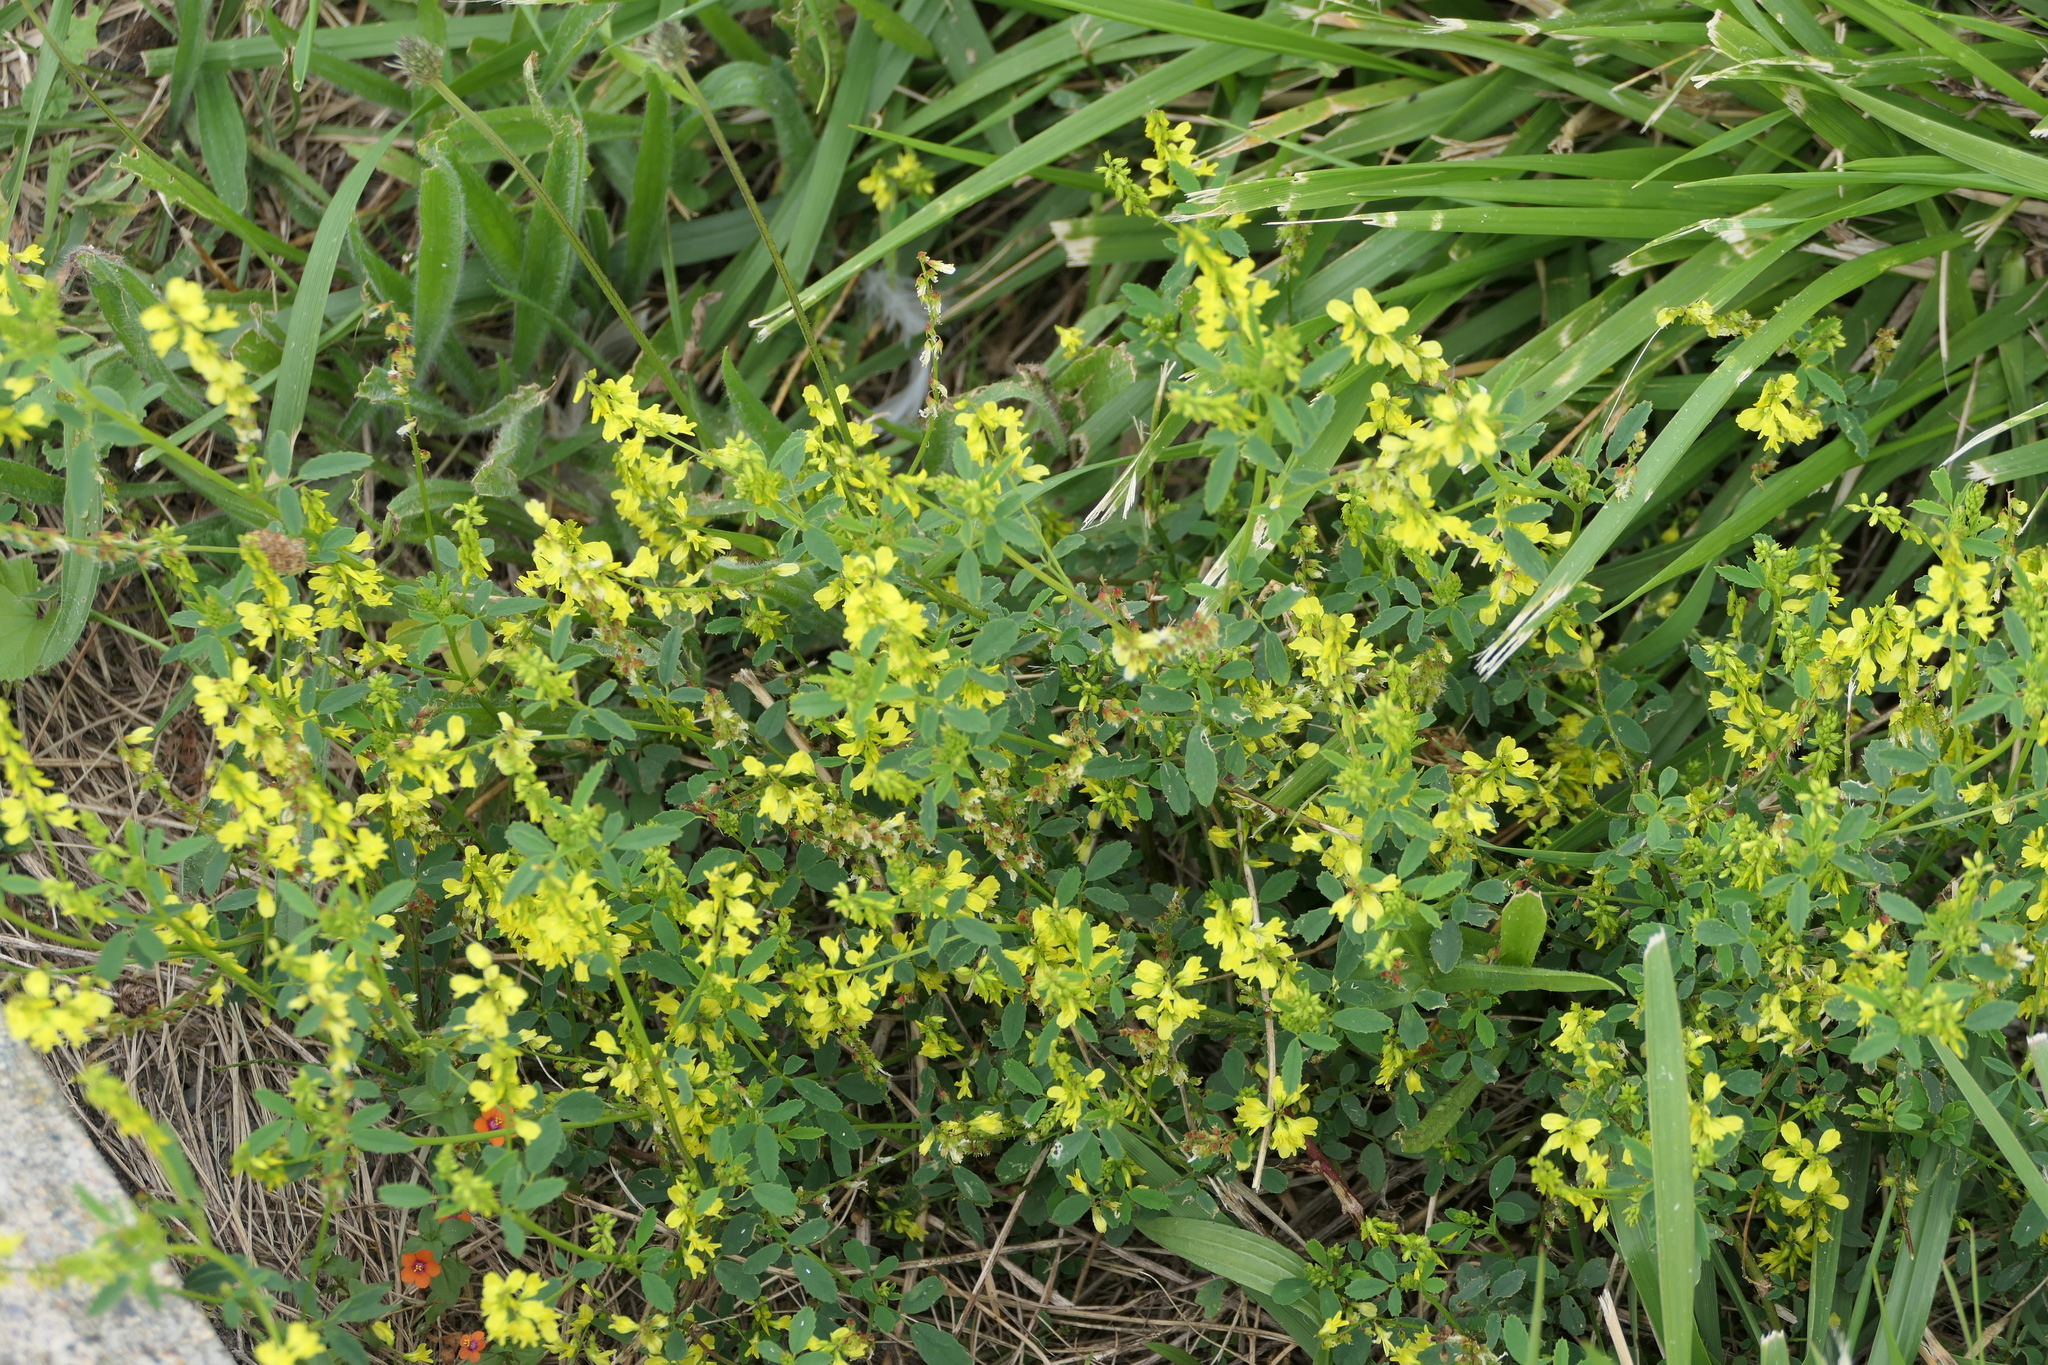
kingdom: Plantae
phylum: Tracheophyta
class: Magnoliopsida
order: Fabales
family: Fabaceae
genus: Melilotus
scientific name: Melilotus officinalis
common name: Sweetclover
